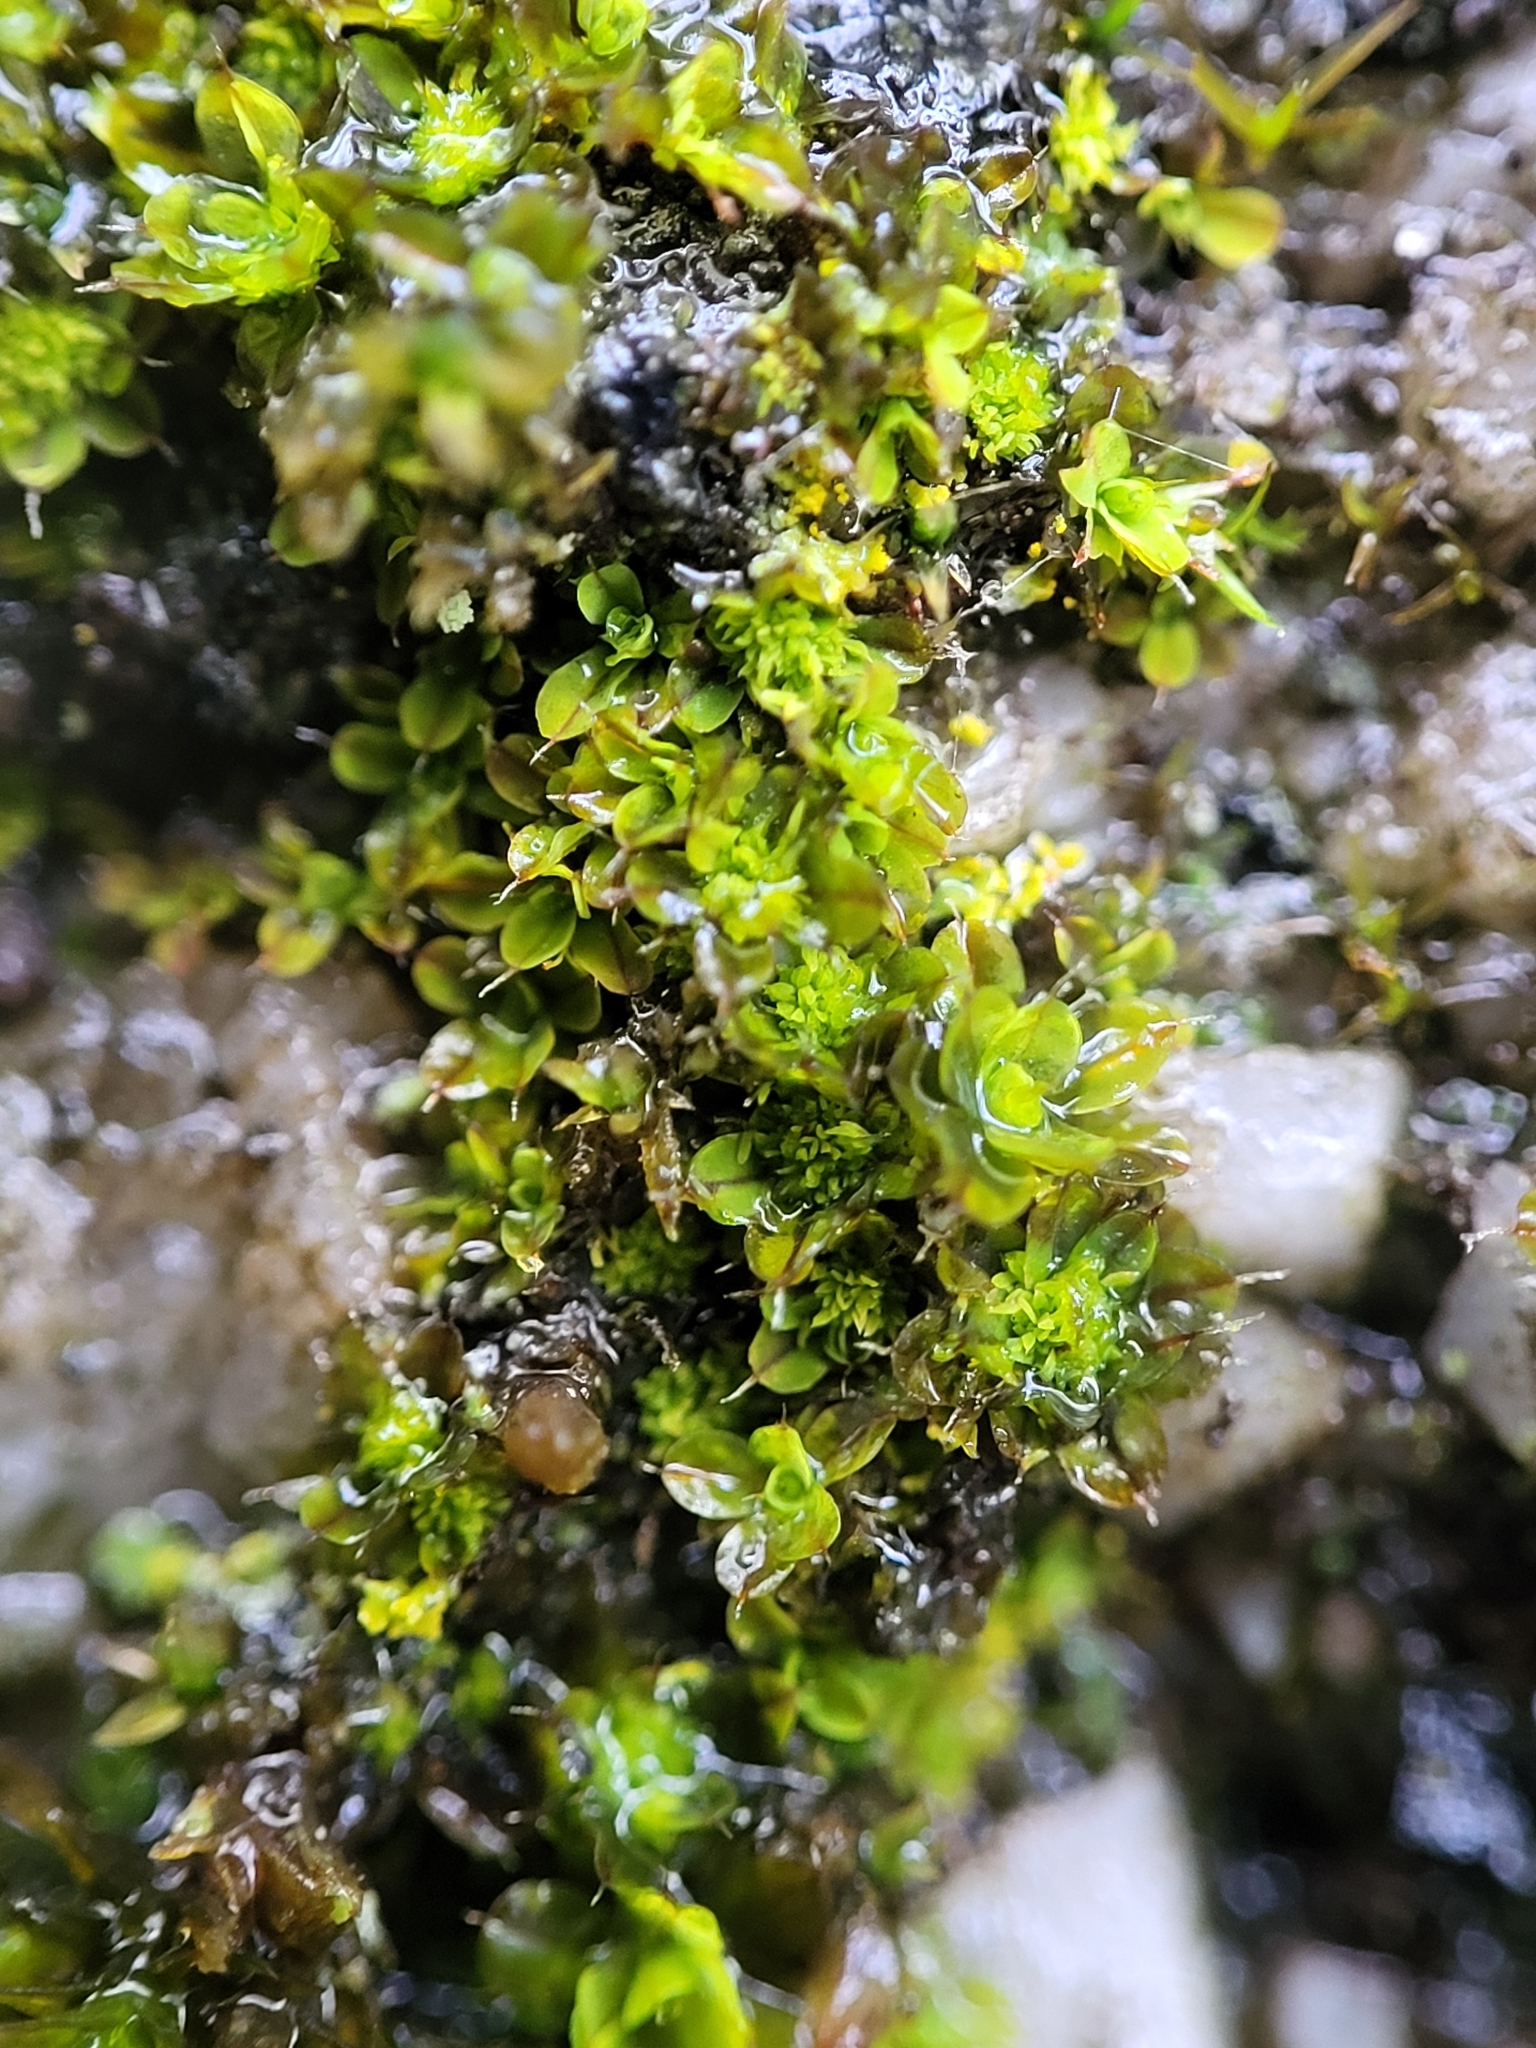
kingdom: Plantae
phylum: Bryophyta
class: Bryopsida
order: Pottiales
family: Pottiaceae
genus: Syntrichia
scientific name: Syntrichia pagorum
